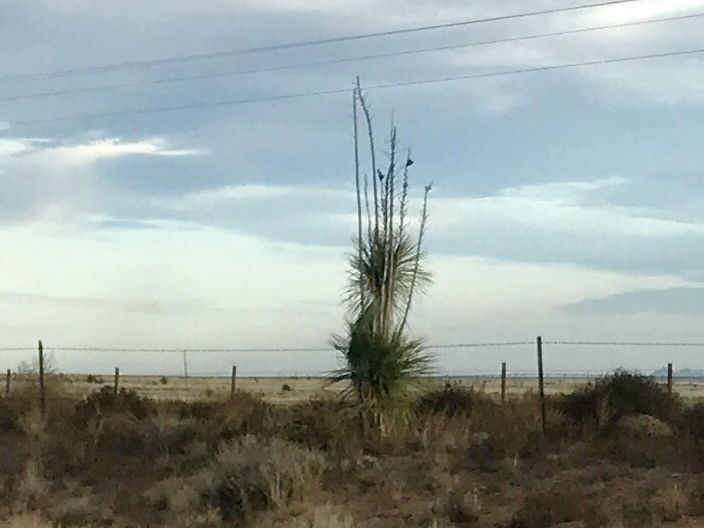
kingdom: Plantae
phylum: Tracheophyta
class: Liliopsida
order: Asparagales
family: Asparagaceae
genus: Yucca
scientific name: Yucca elata
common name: Palmella
